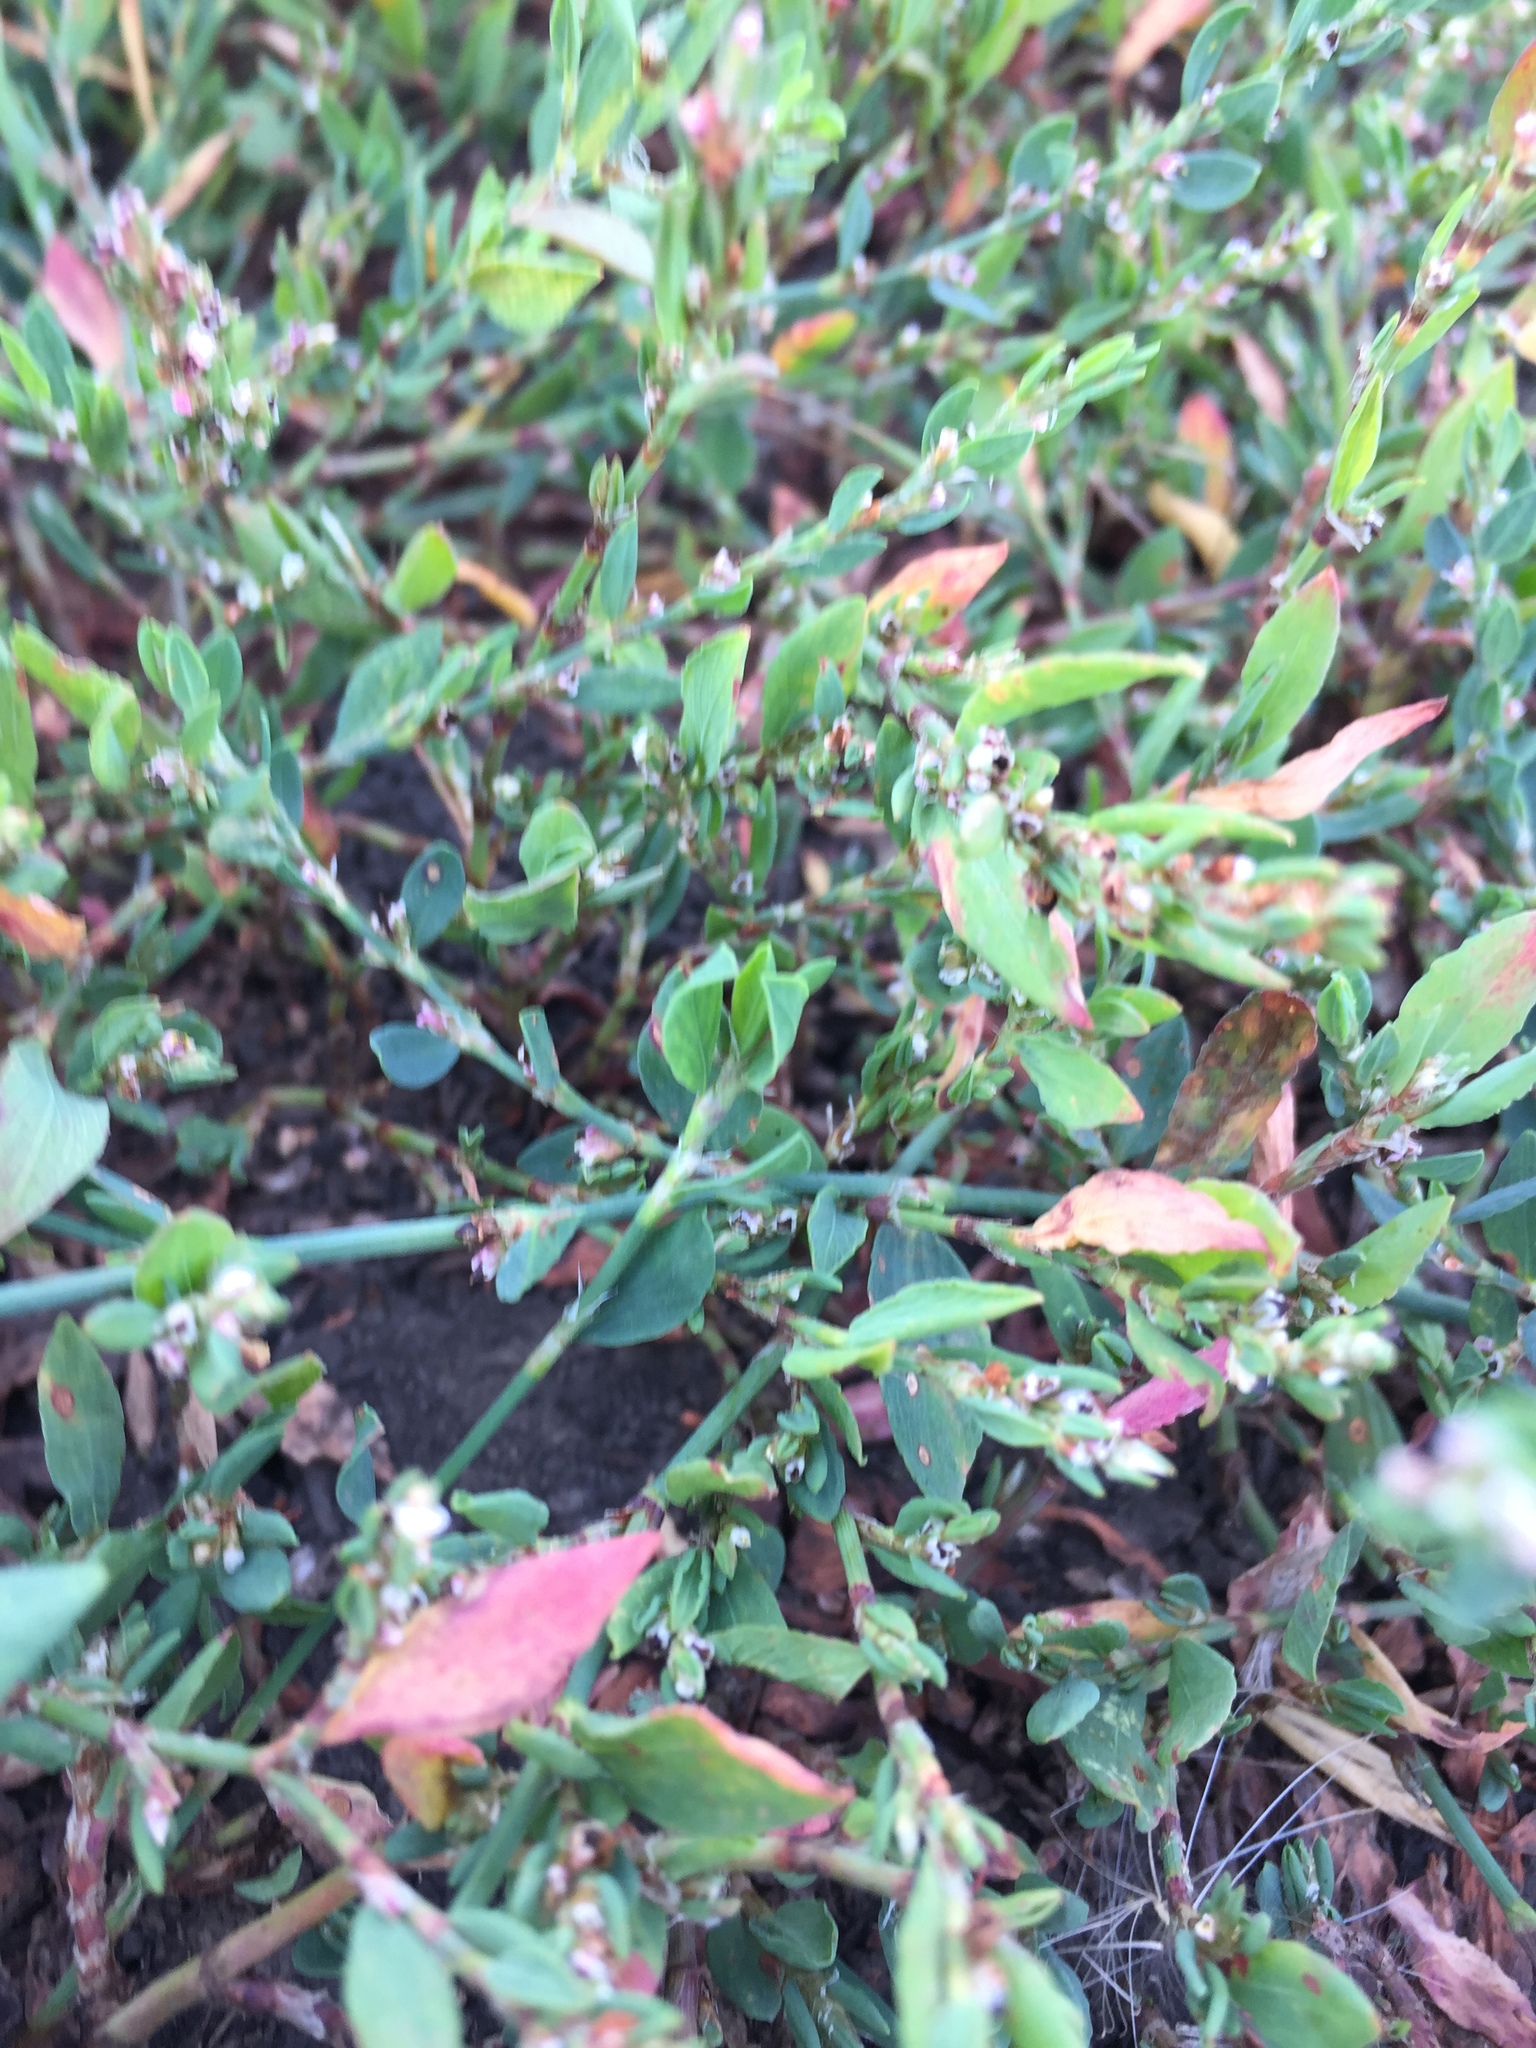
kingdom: Plantae
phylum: Tracheophyta
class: Magnoliopsida
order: Caryophyllales
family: Polygonaceae
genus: Polygonum
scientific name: Polygonum
